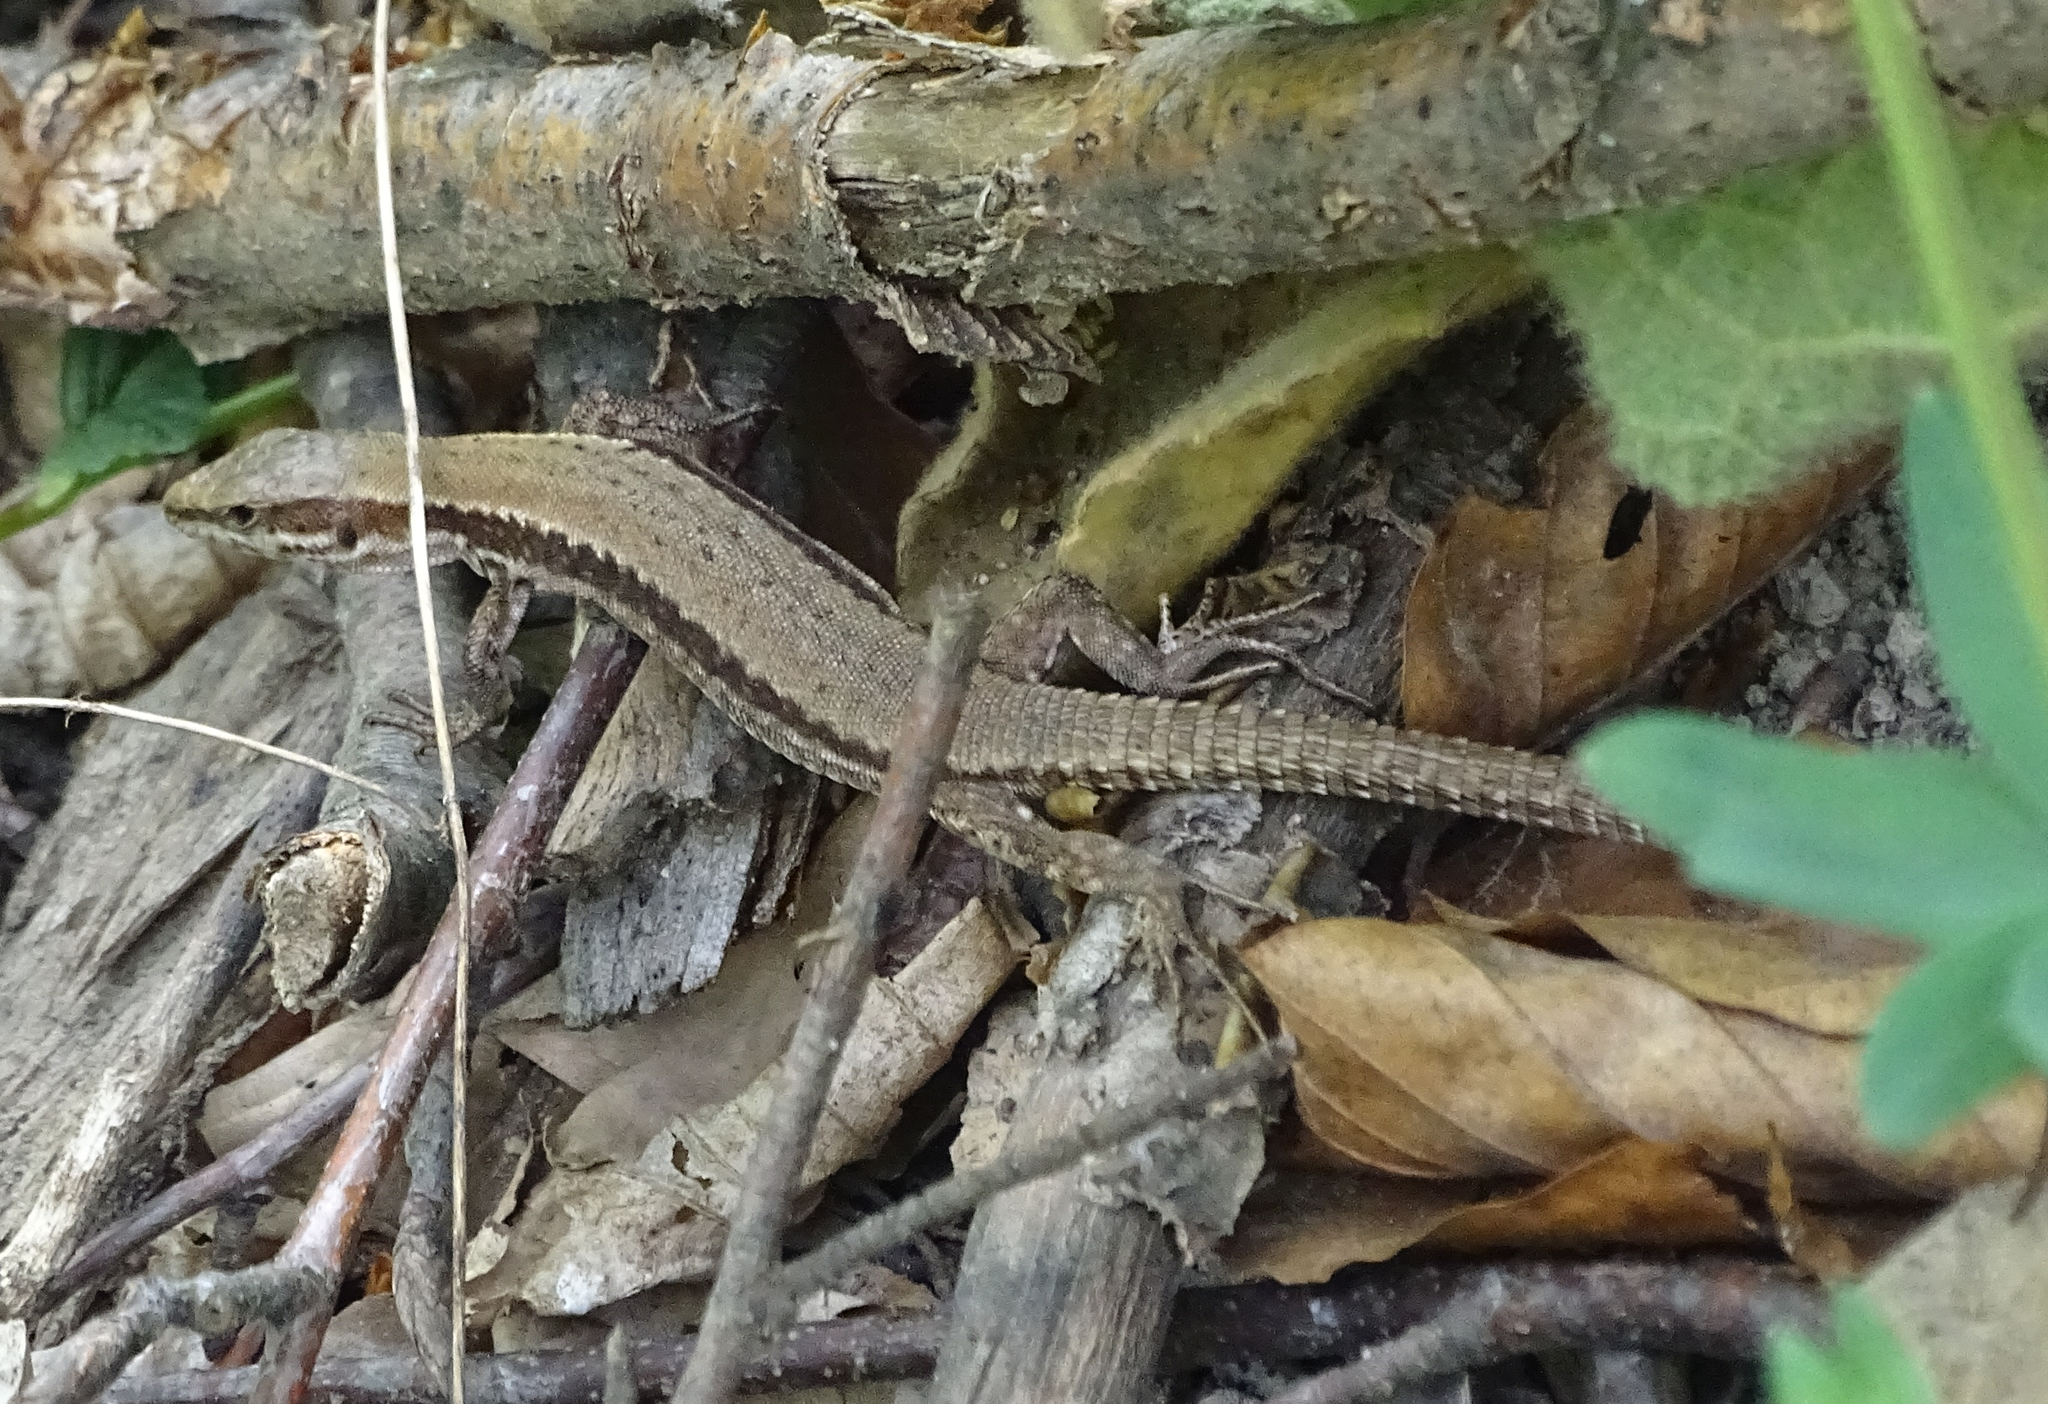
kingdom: Animalia
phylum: Chordata
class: Squamata
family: Lacertidae
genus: Podarcis
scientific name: Podarcis muralis
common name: Common wall lizard
